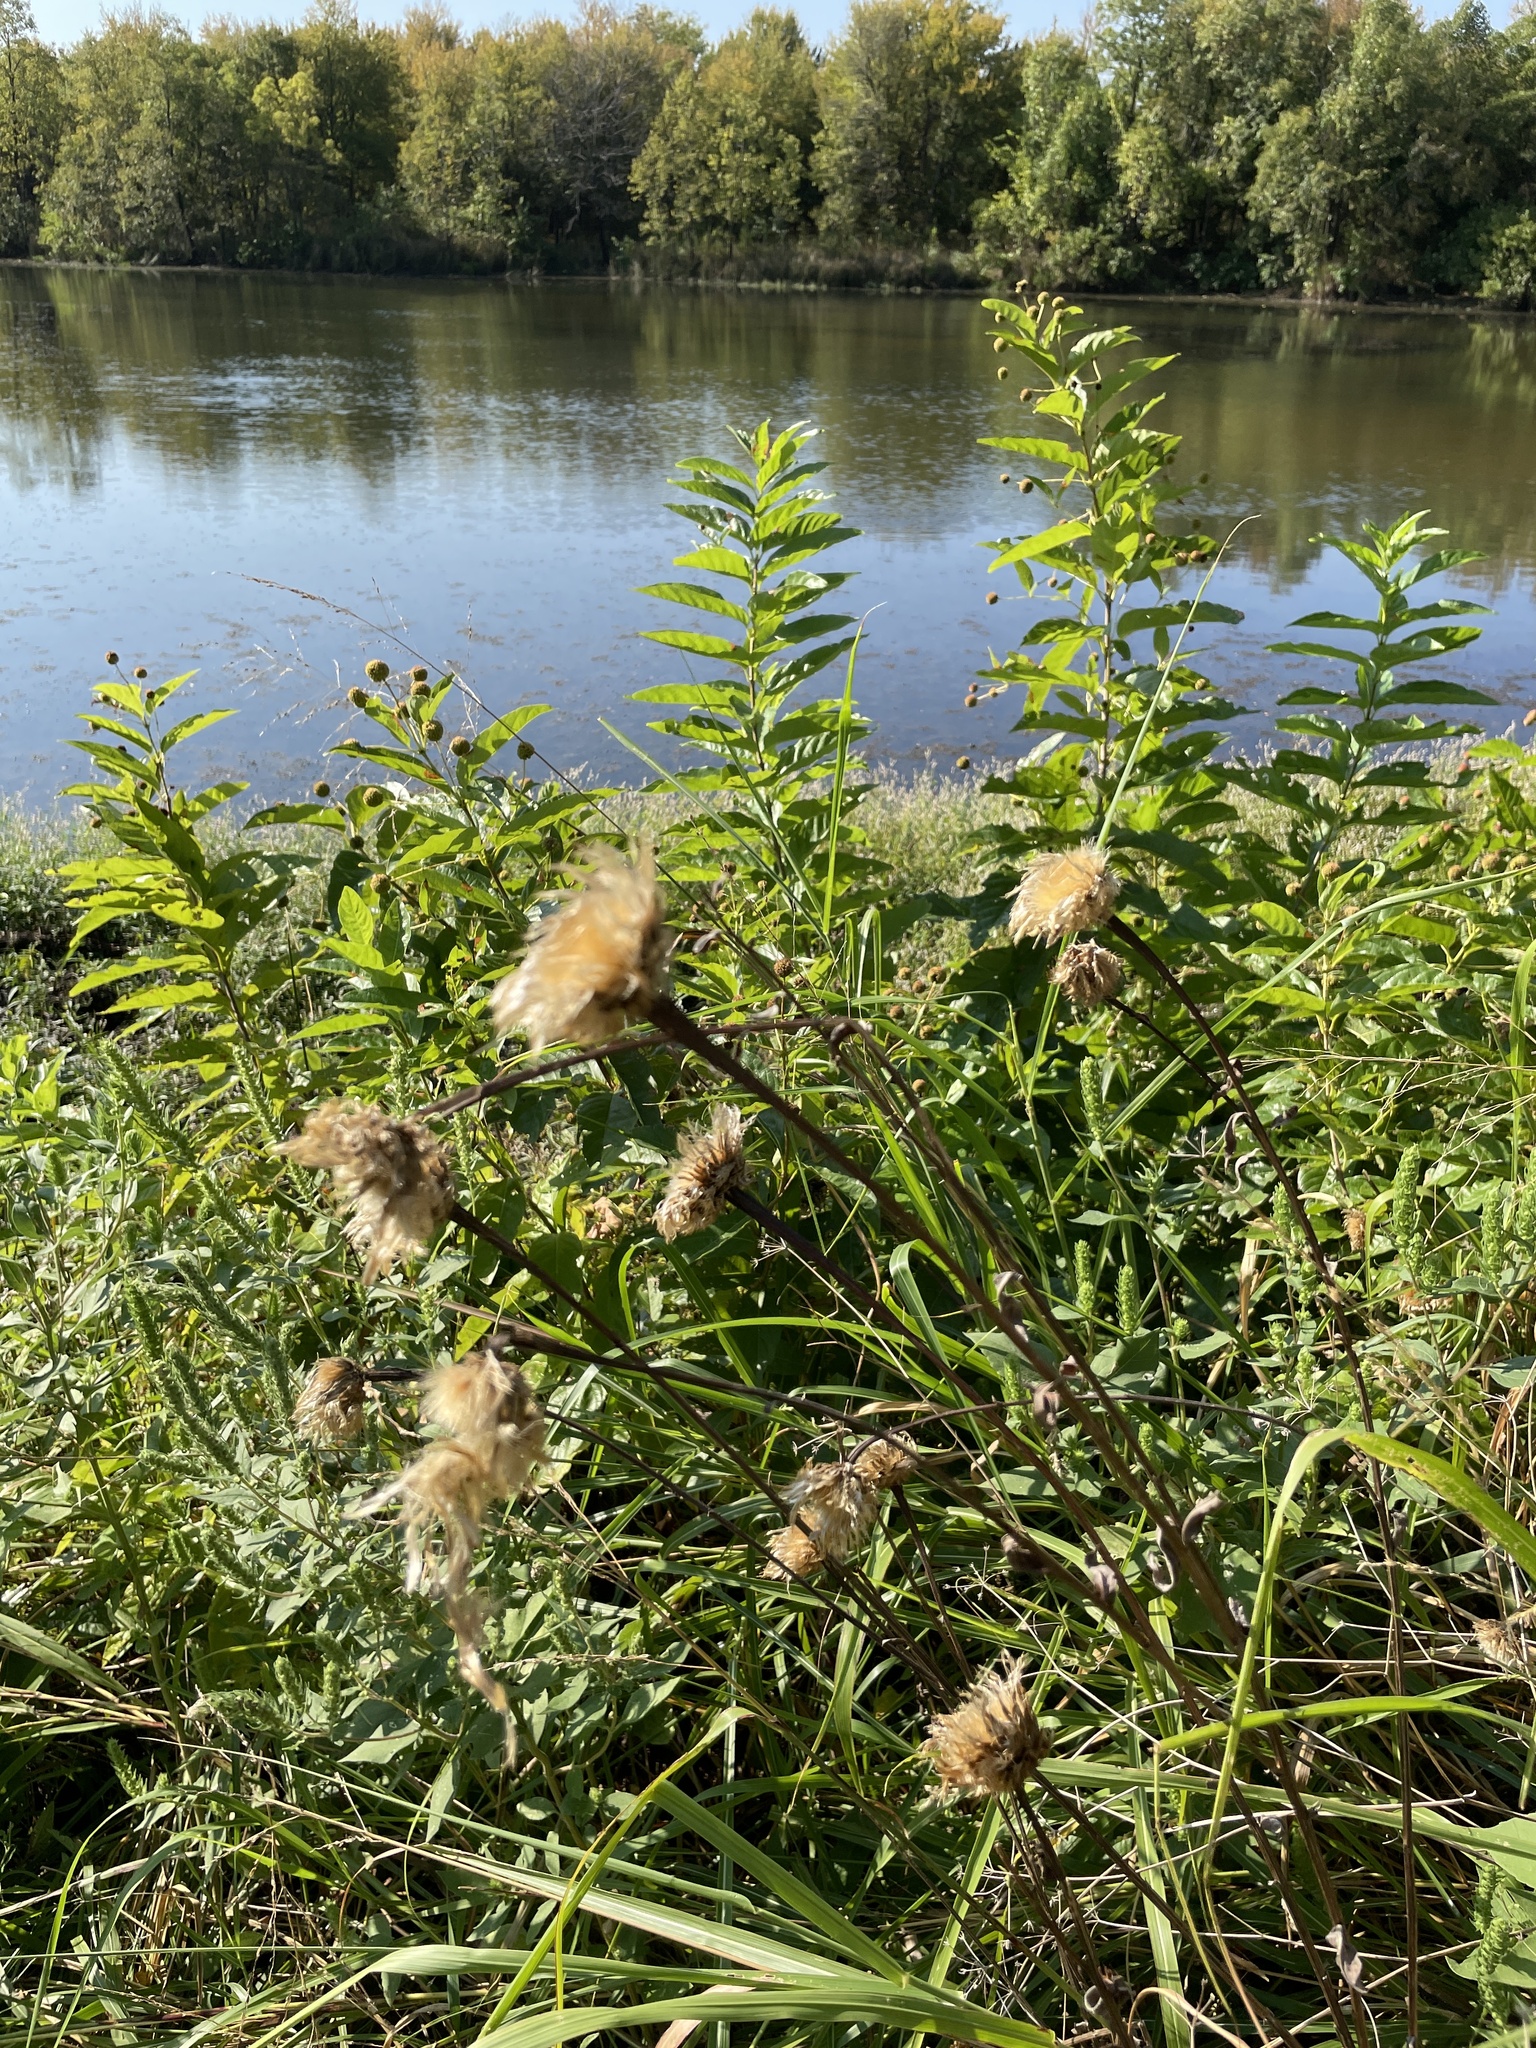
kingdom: Plantae
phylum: Tracheophyta
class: Magnoliopsida
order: Asterales
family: Asteraceae
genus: Plectocephalus
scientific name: Plectocephalus americanus
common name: American basket-flower
